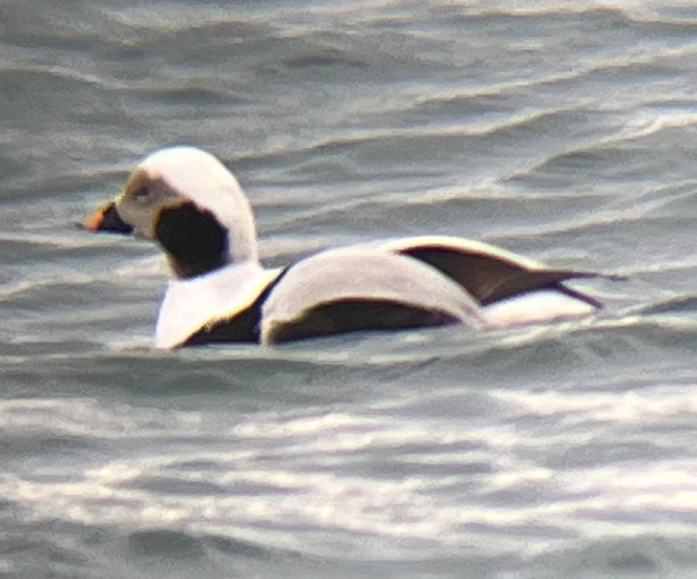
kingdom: Animalia
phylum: Chordata
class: Aves
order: Anseriformes
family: Anatidae
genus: Clangula
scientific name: Clangula hyemalis
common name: Long-tailed duck
